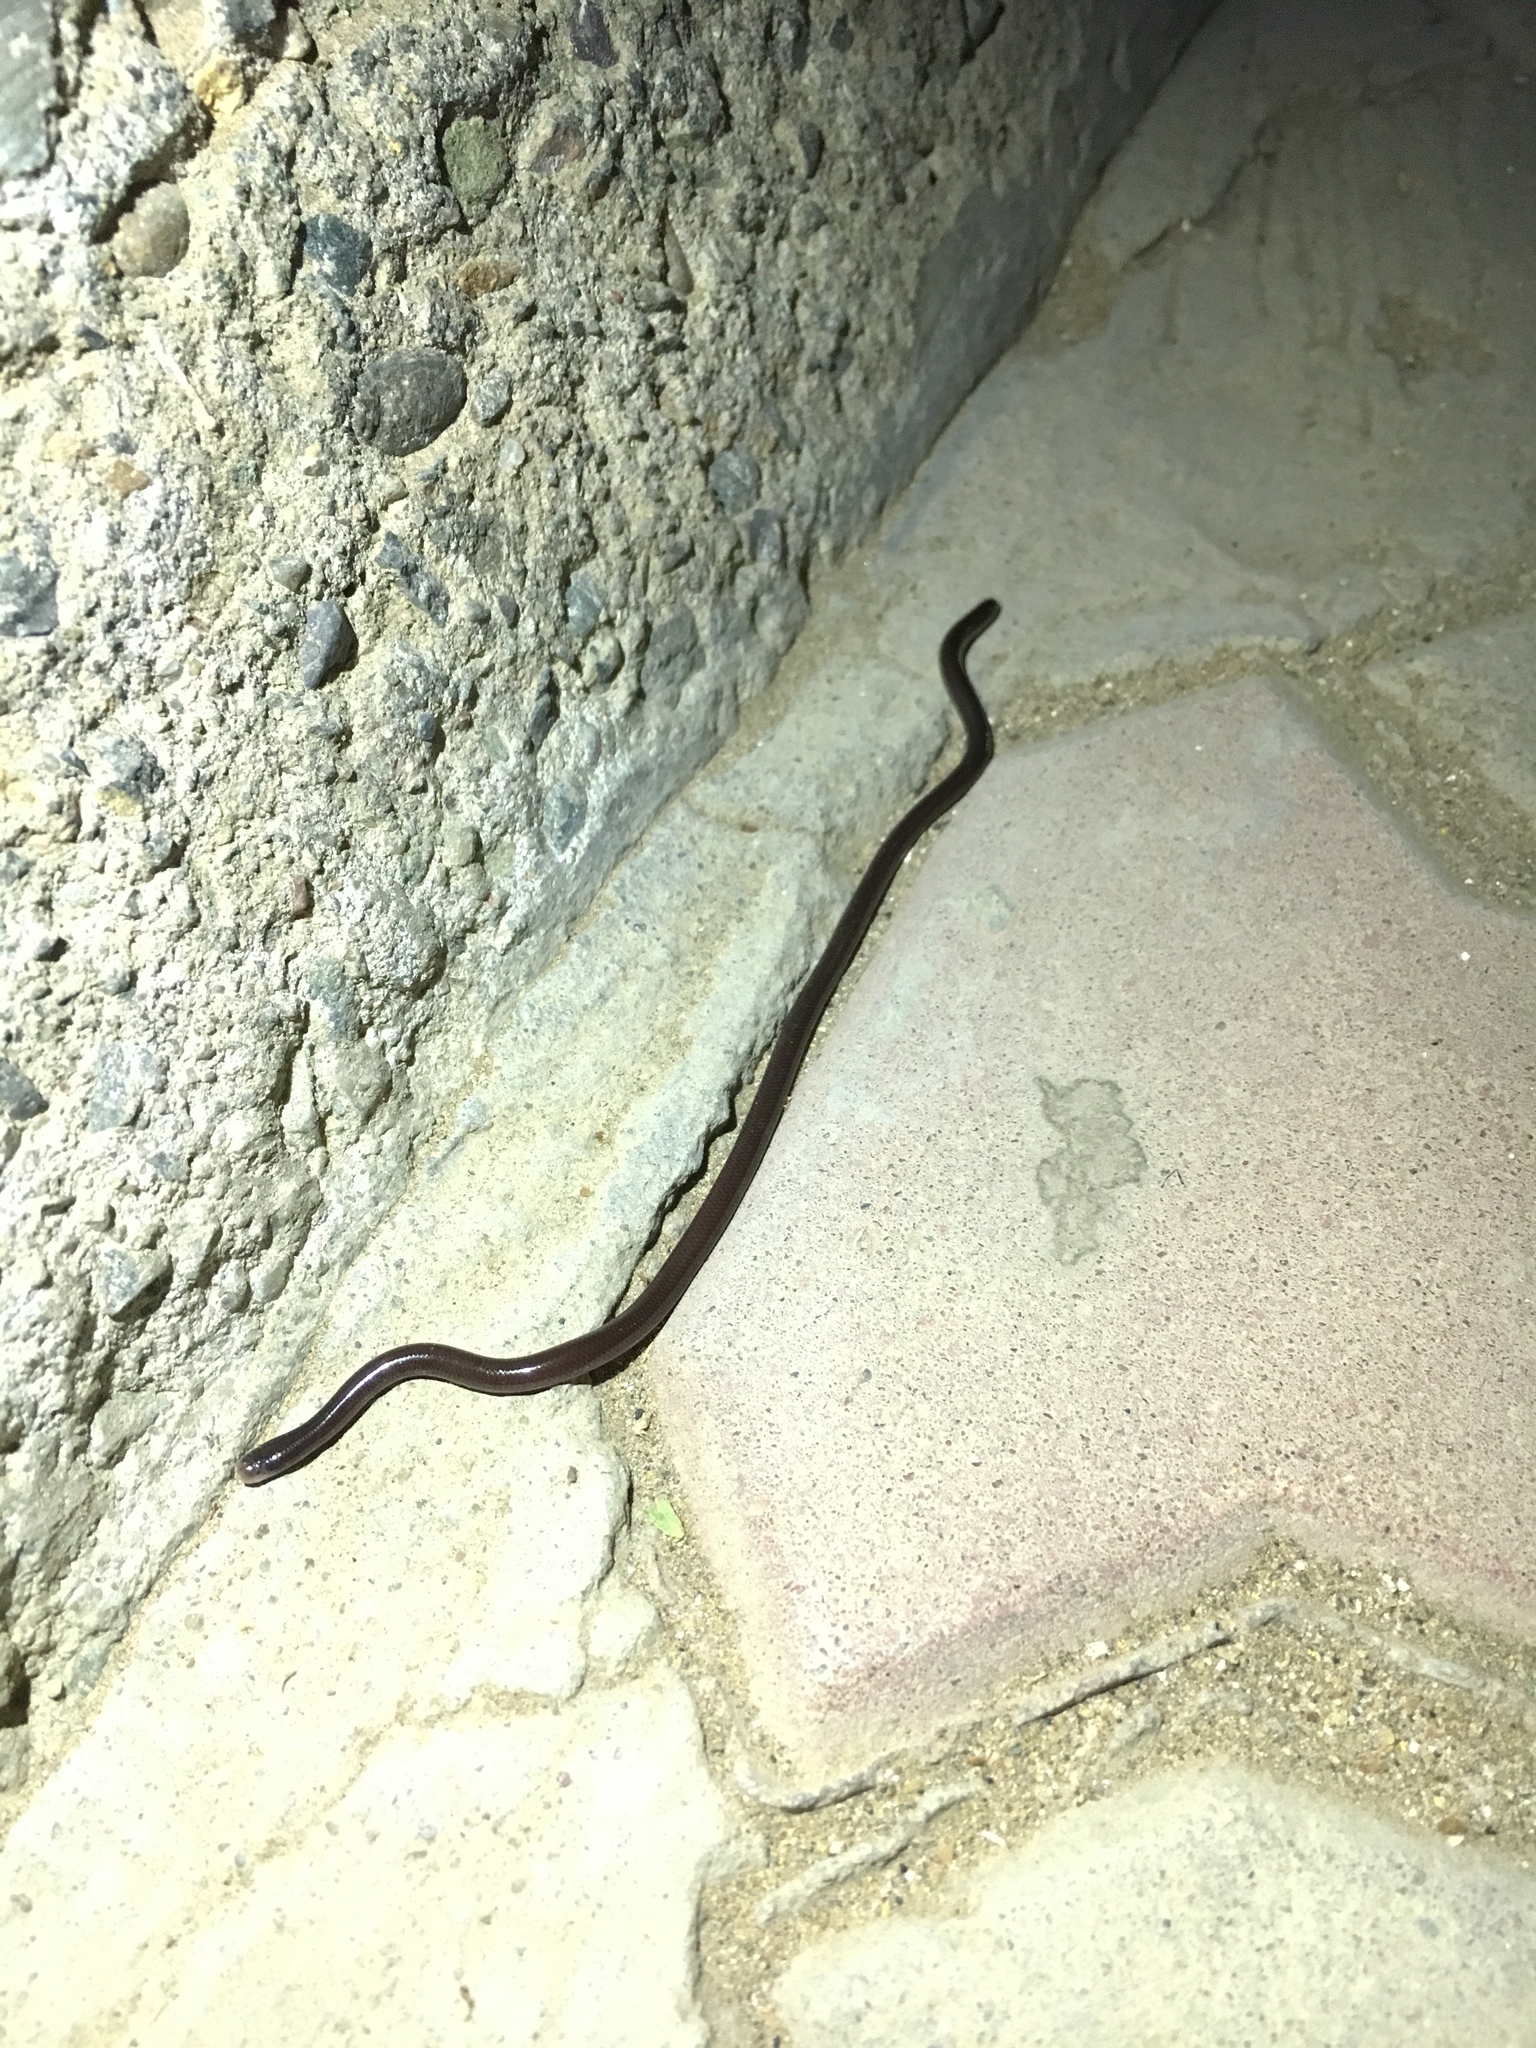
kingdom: Animalia
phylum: Chordata
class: Squamata
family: Typhlopidae
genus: Indotyphlops
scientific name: Indotyphlops braminus
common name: Brahminy blindsnake
